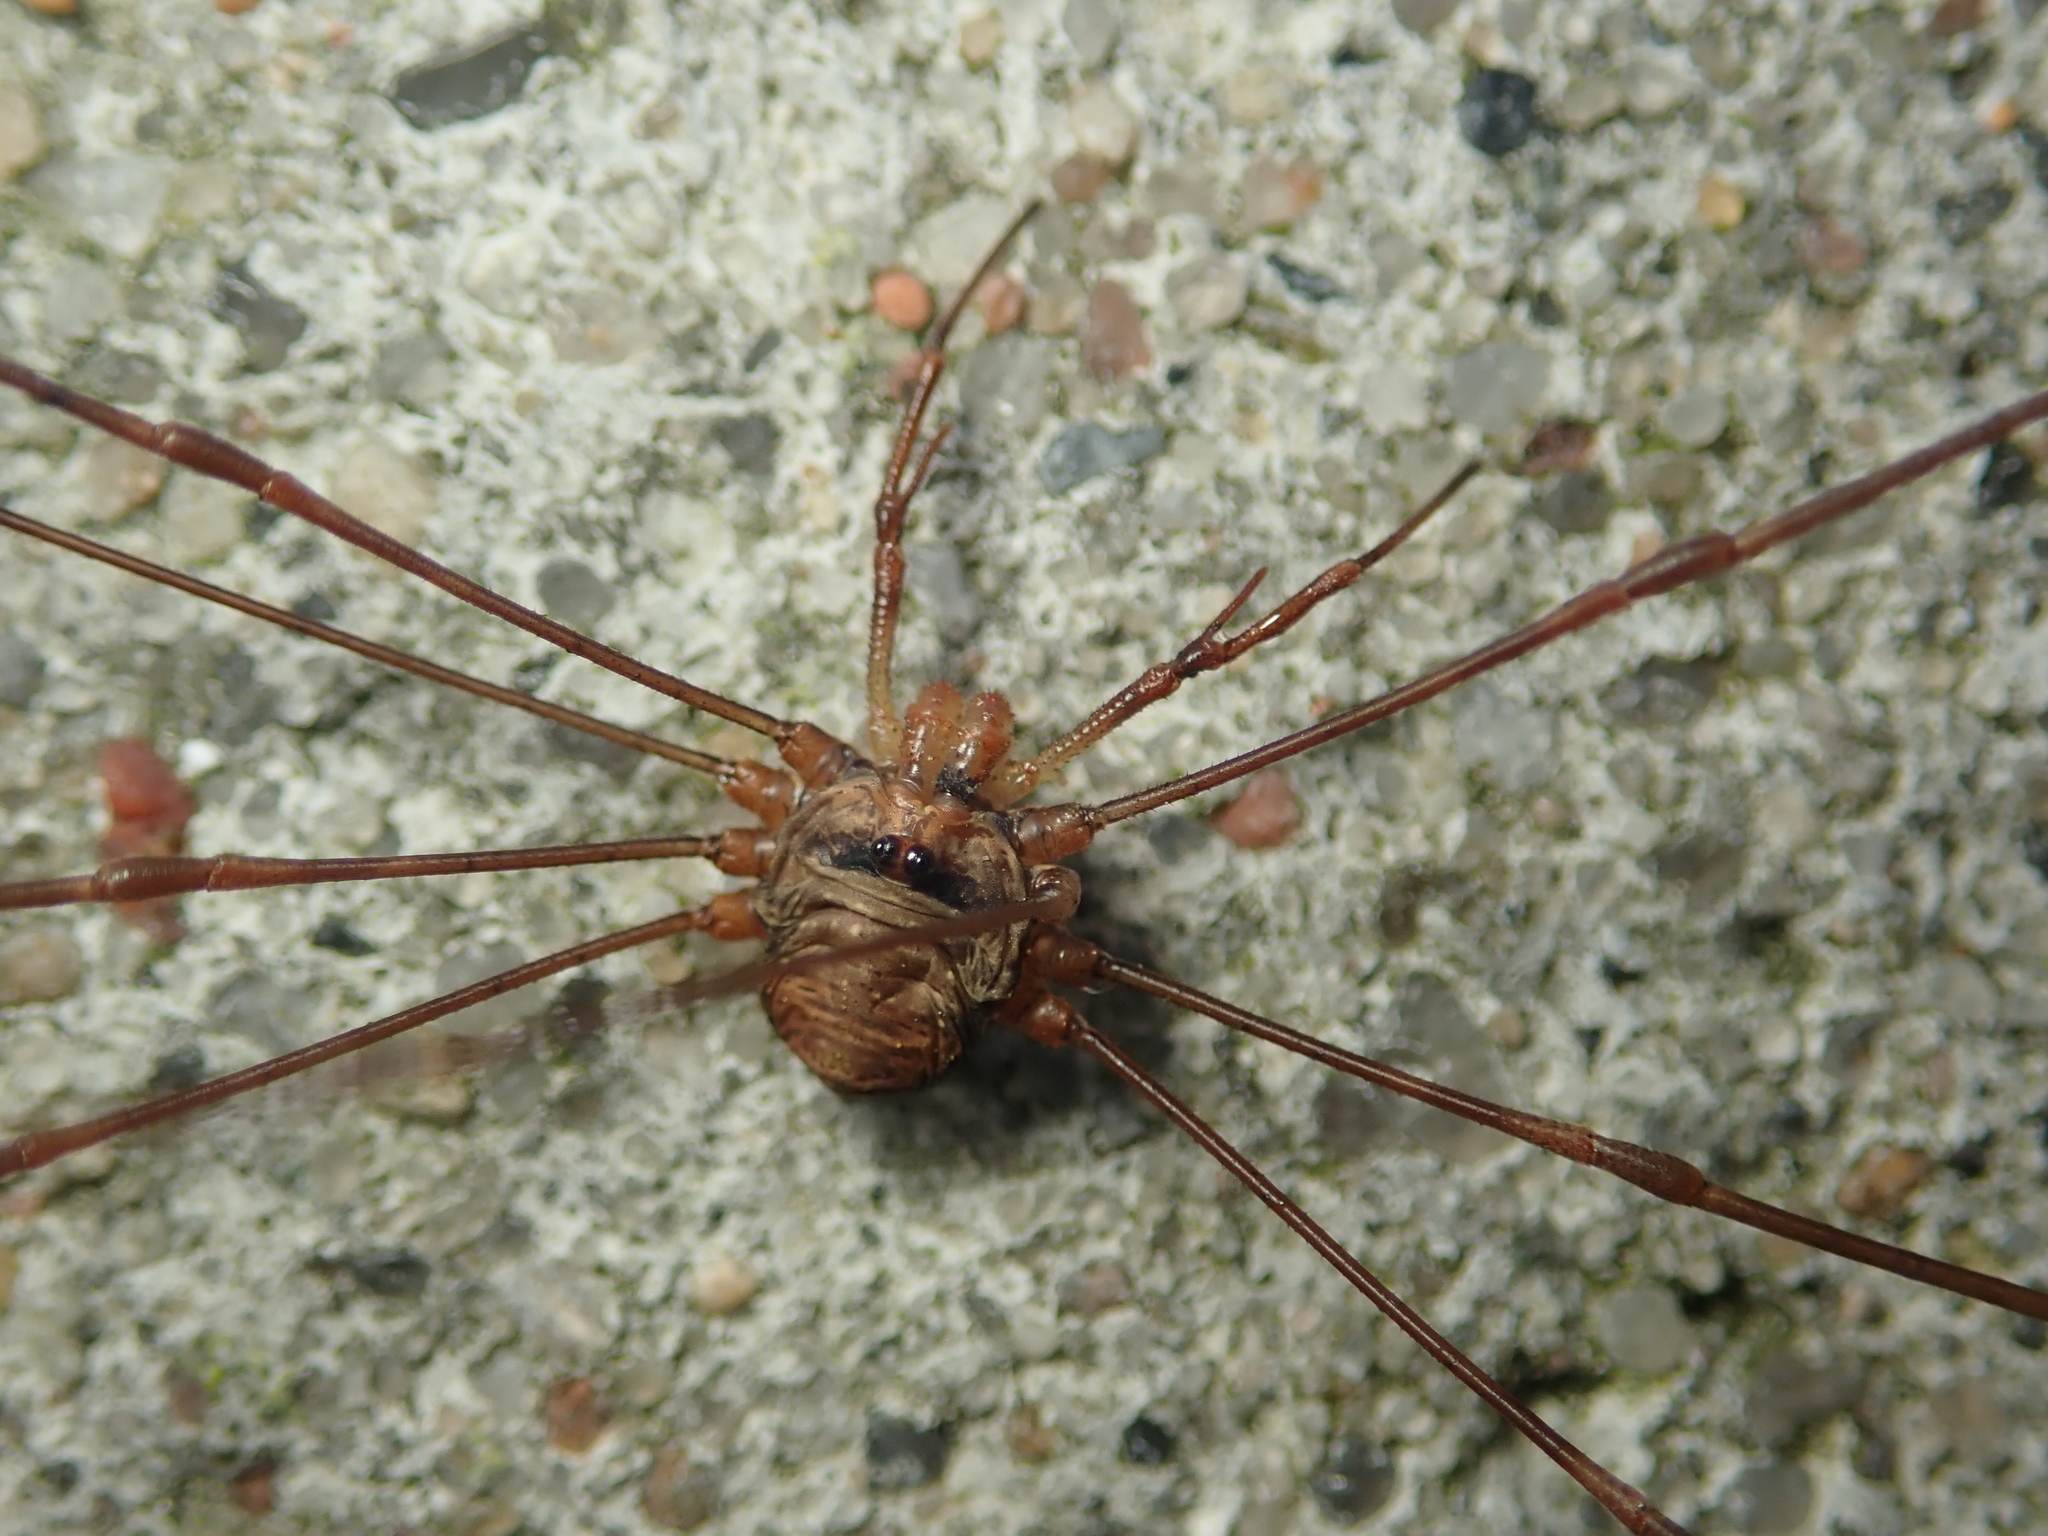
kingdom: Animalia
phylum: Arthropoda
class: Arachnida
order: Opiliones
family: Phalangiidae
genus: Dicranopalpus
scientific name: Dicranopalpus ramosus
